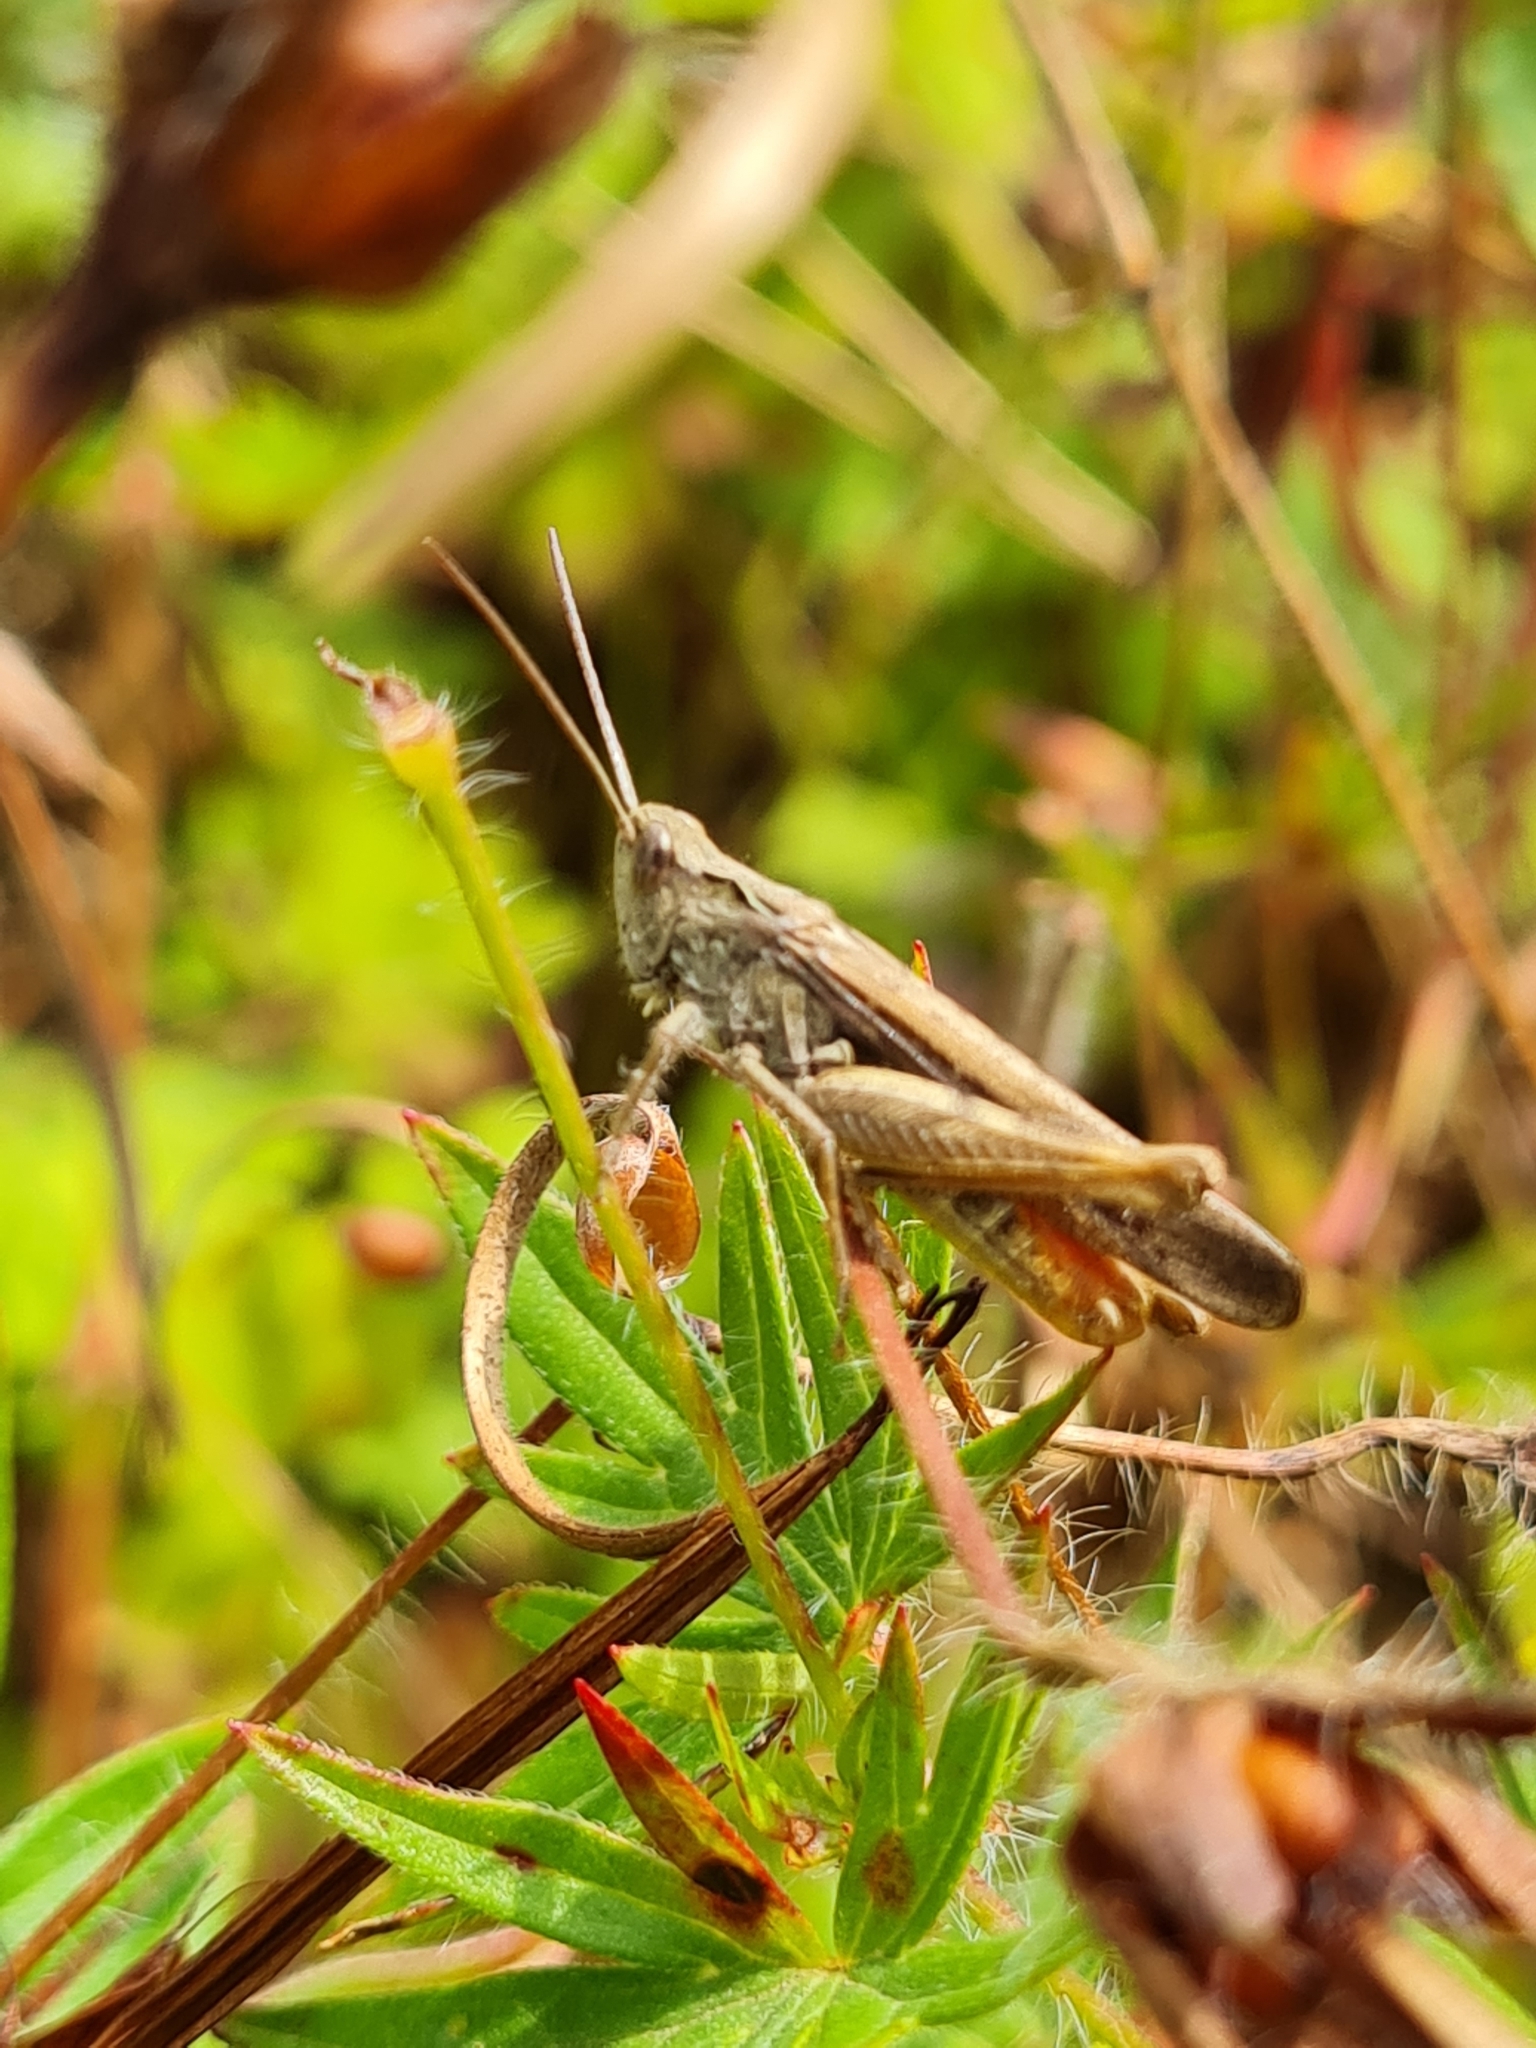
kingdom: Animalia
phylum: Arthropoda
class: Insecta
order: Orthoptera
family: Acrididae
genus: Chorthippus
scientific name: Chorthippus brunneus
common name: Field grasshopper
